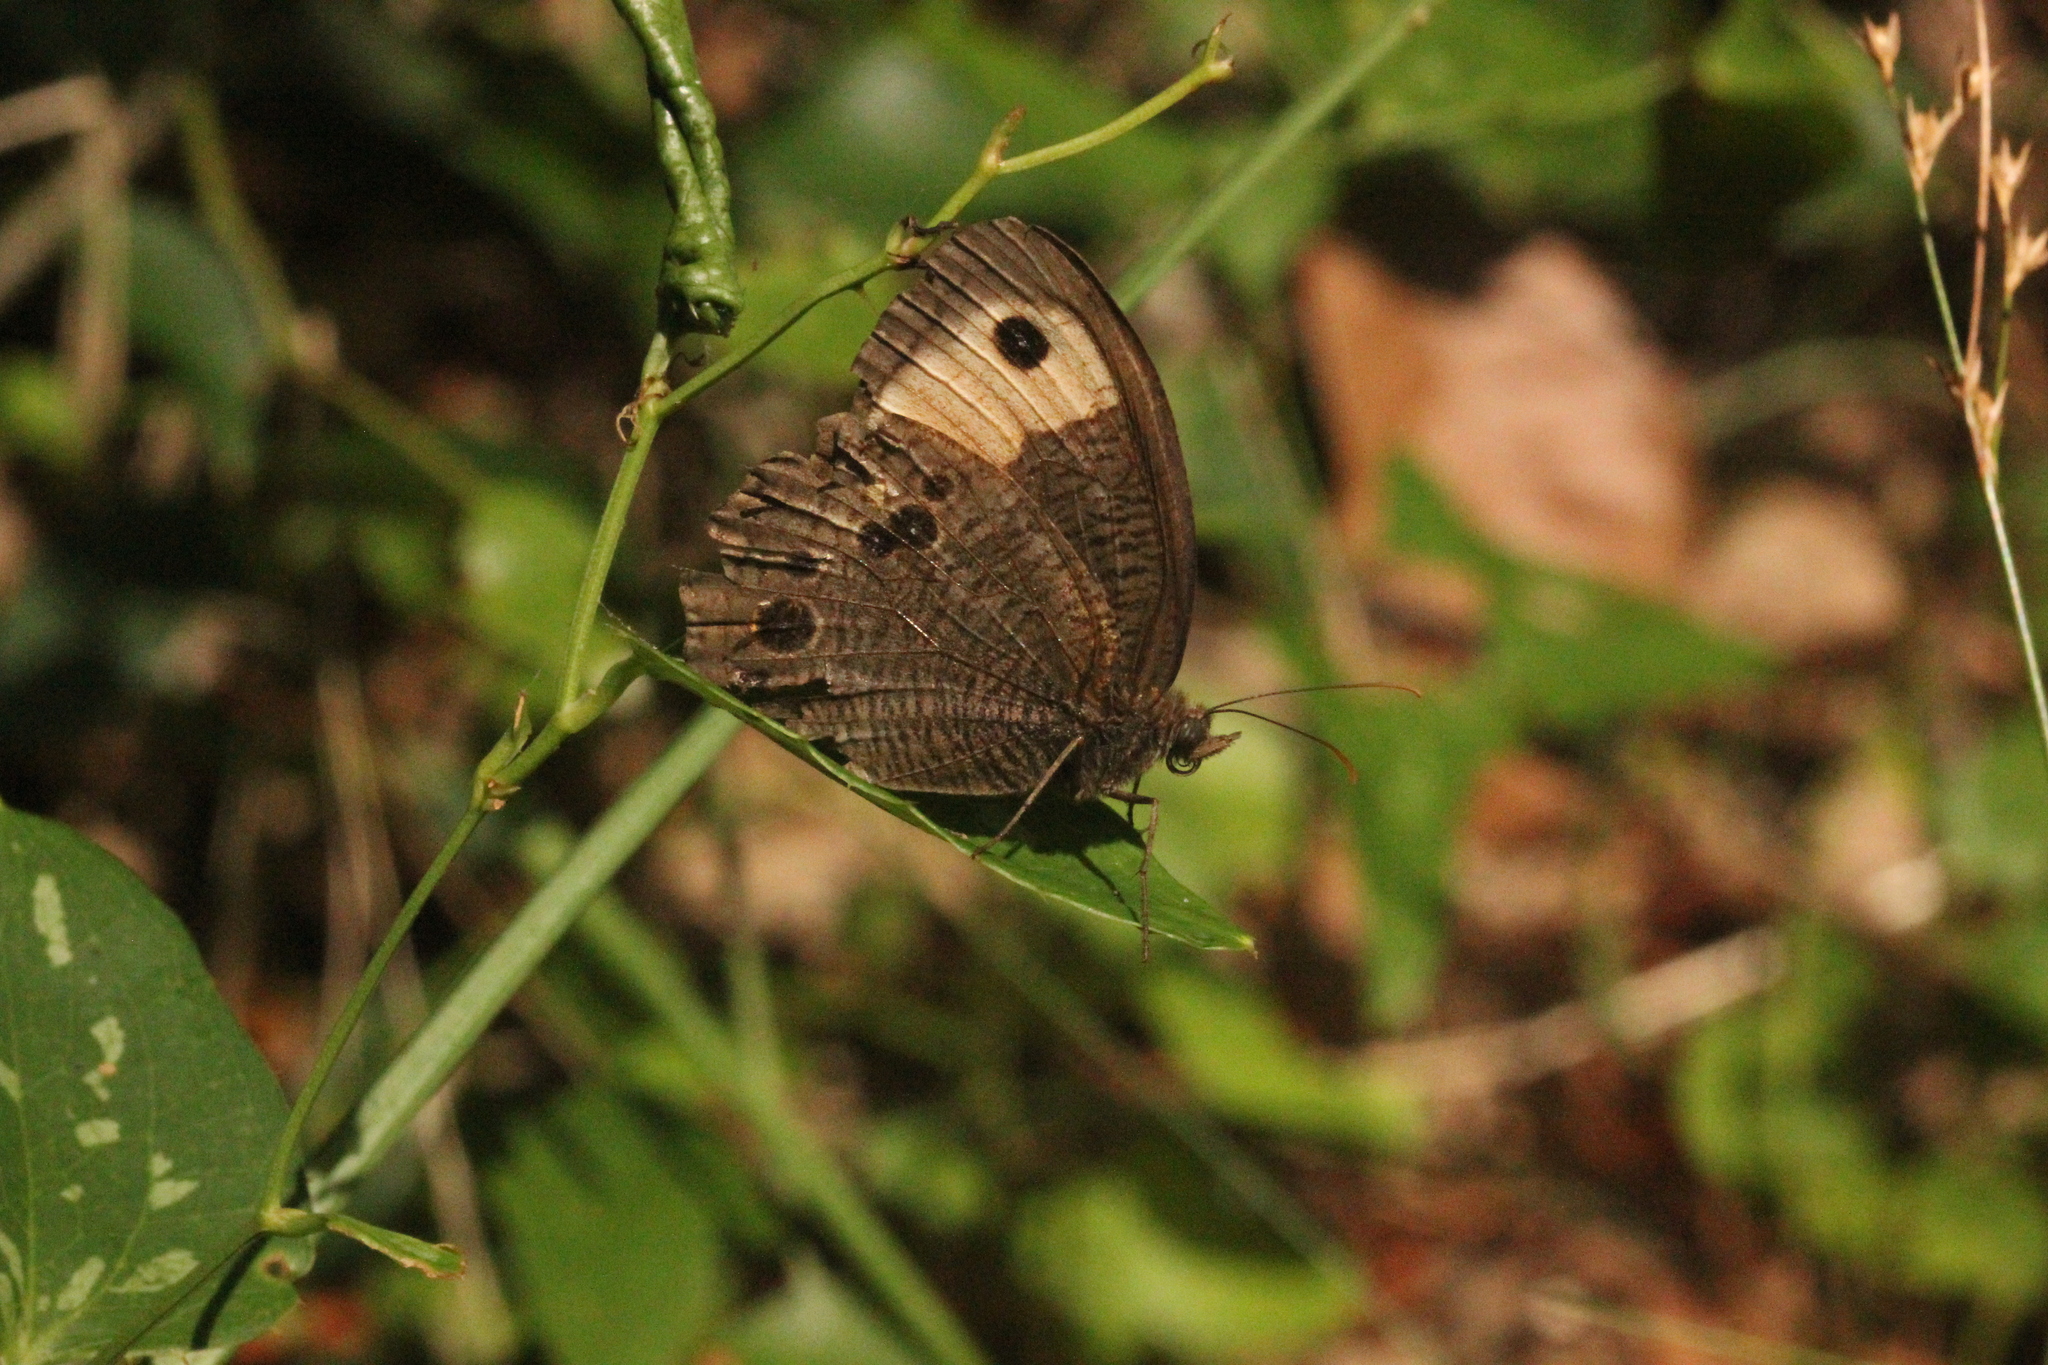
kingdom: Animalia
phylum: Arthropoda
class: Insecta
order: Lepidoptera
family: Nymphalidae
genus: Cercyonis
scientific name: Cercyonis pegala
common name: Common wood-nymph
